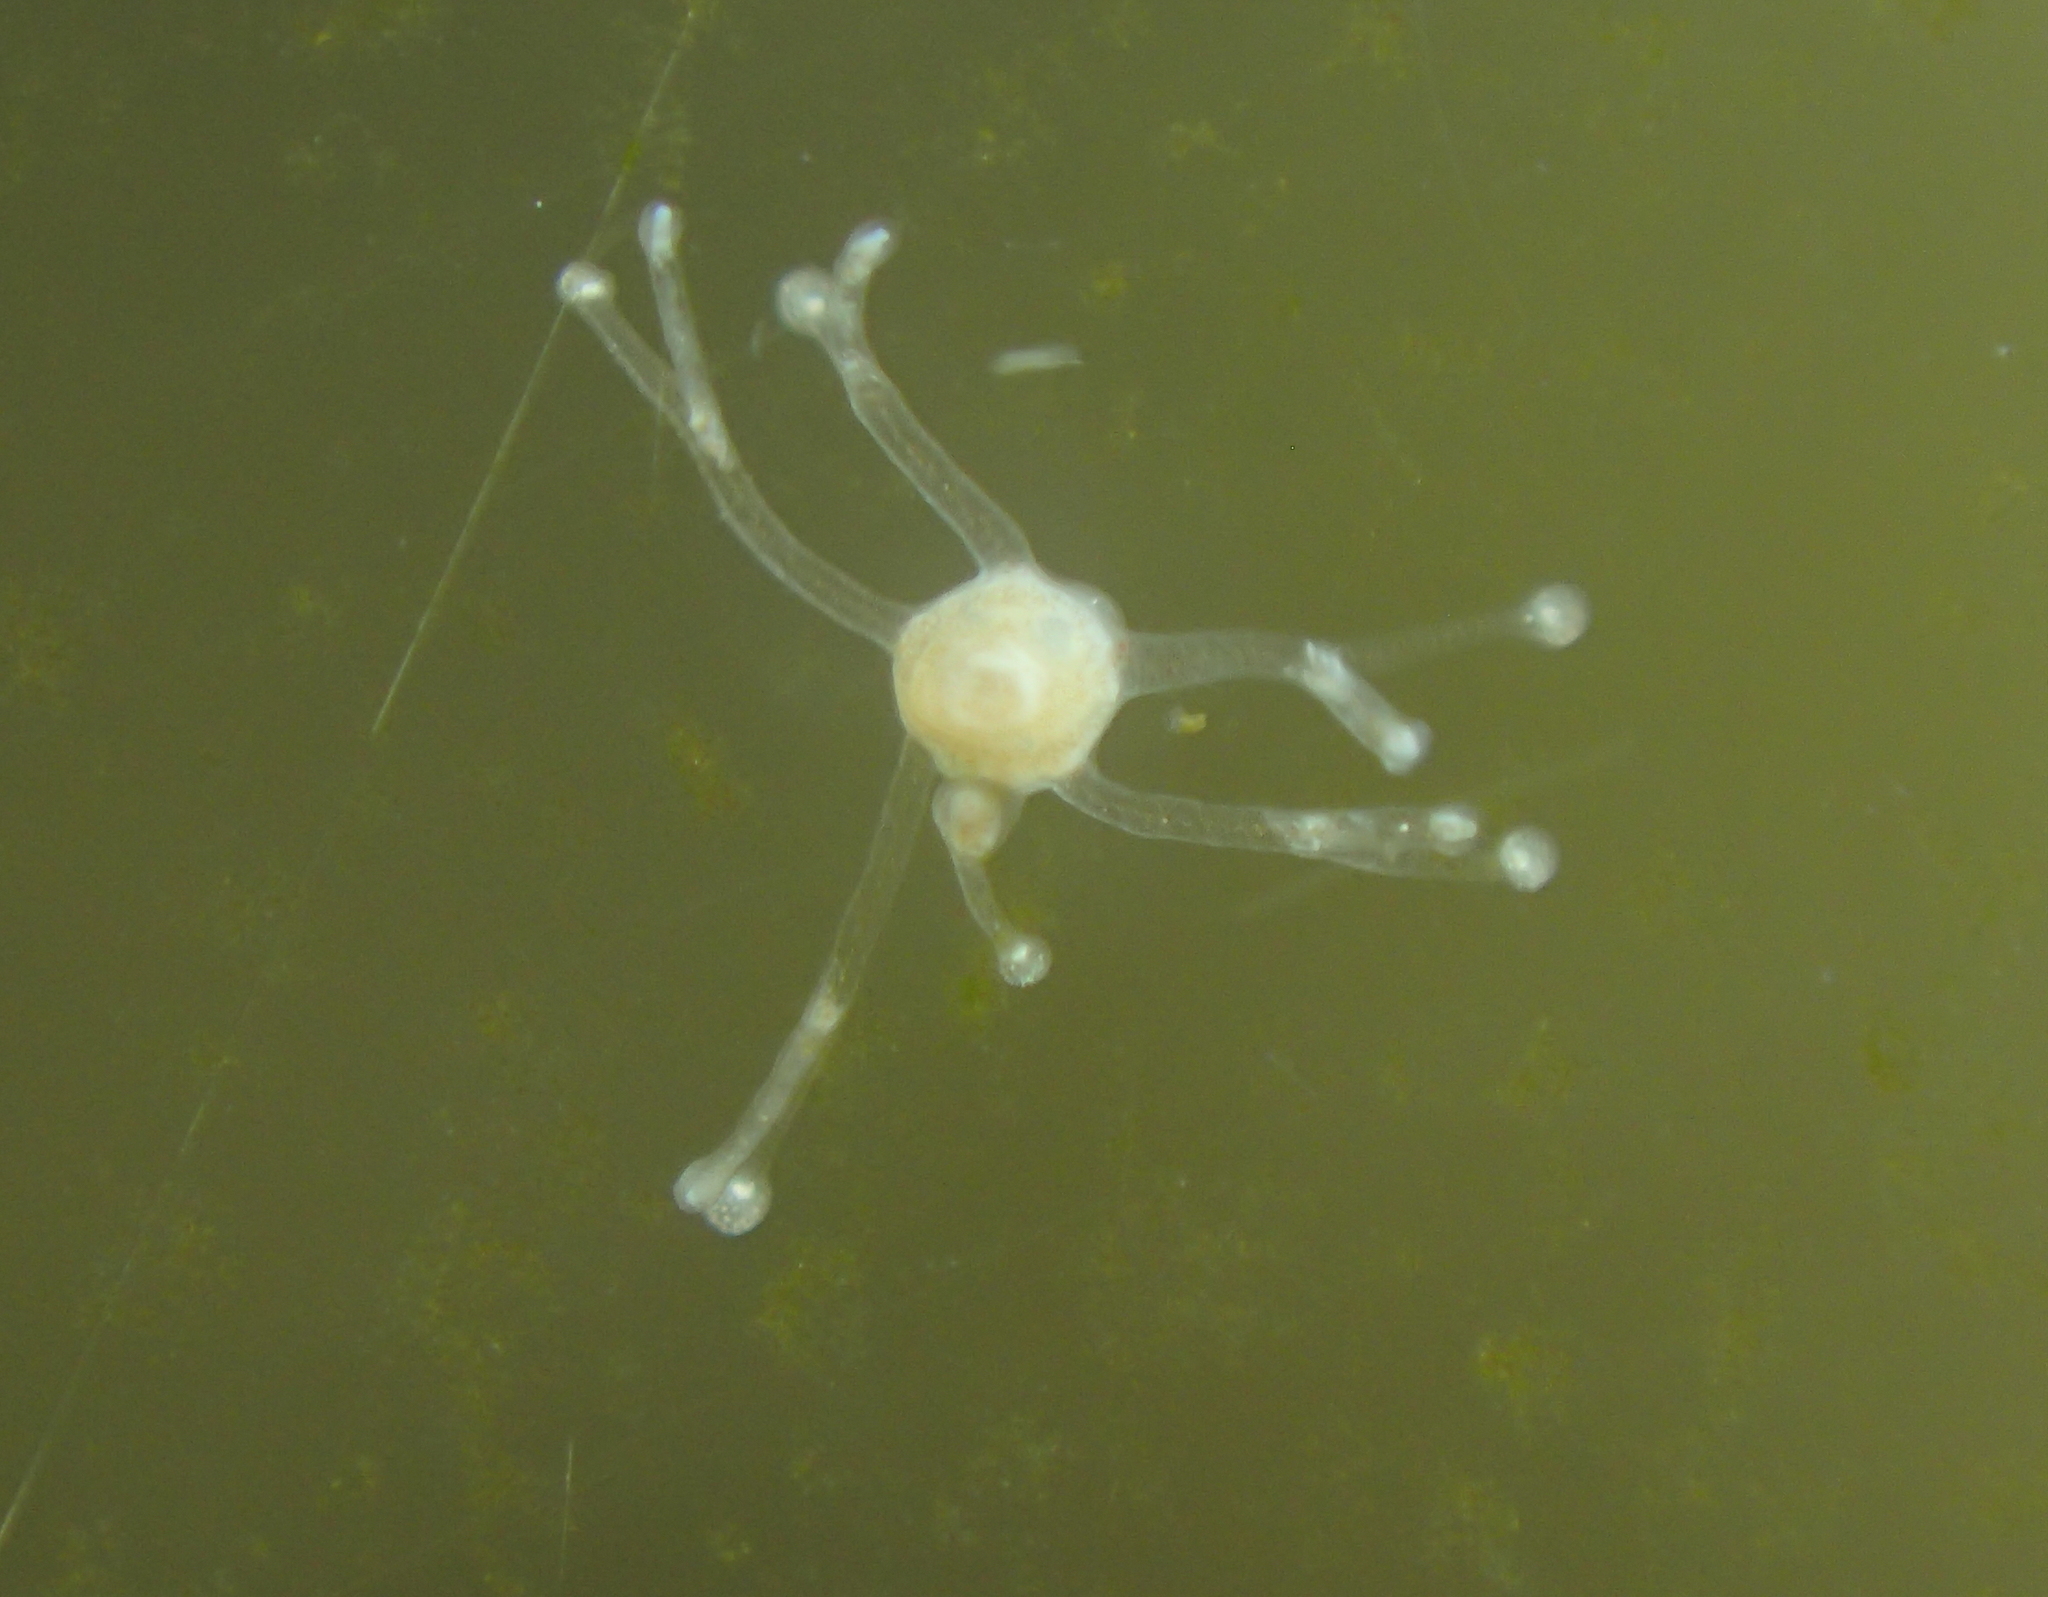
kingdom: Animalia
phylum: Cnidaria
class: Hydrozoa
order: Anthoathecata
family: Cladonematidae
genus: Eleutheria
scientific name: Eleutheria dichotoma
